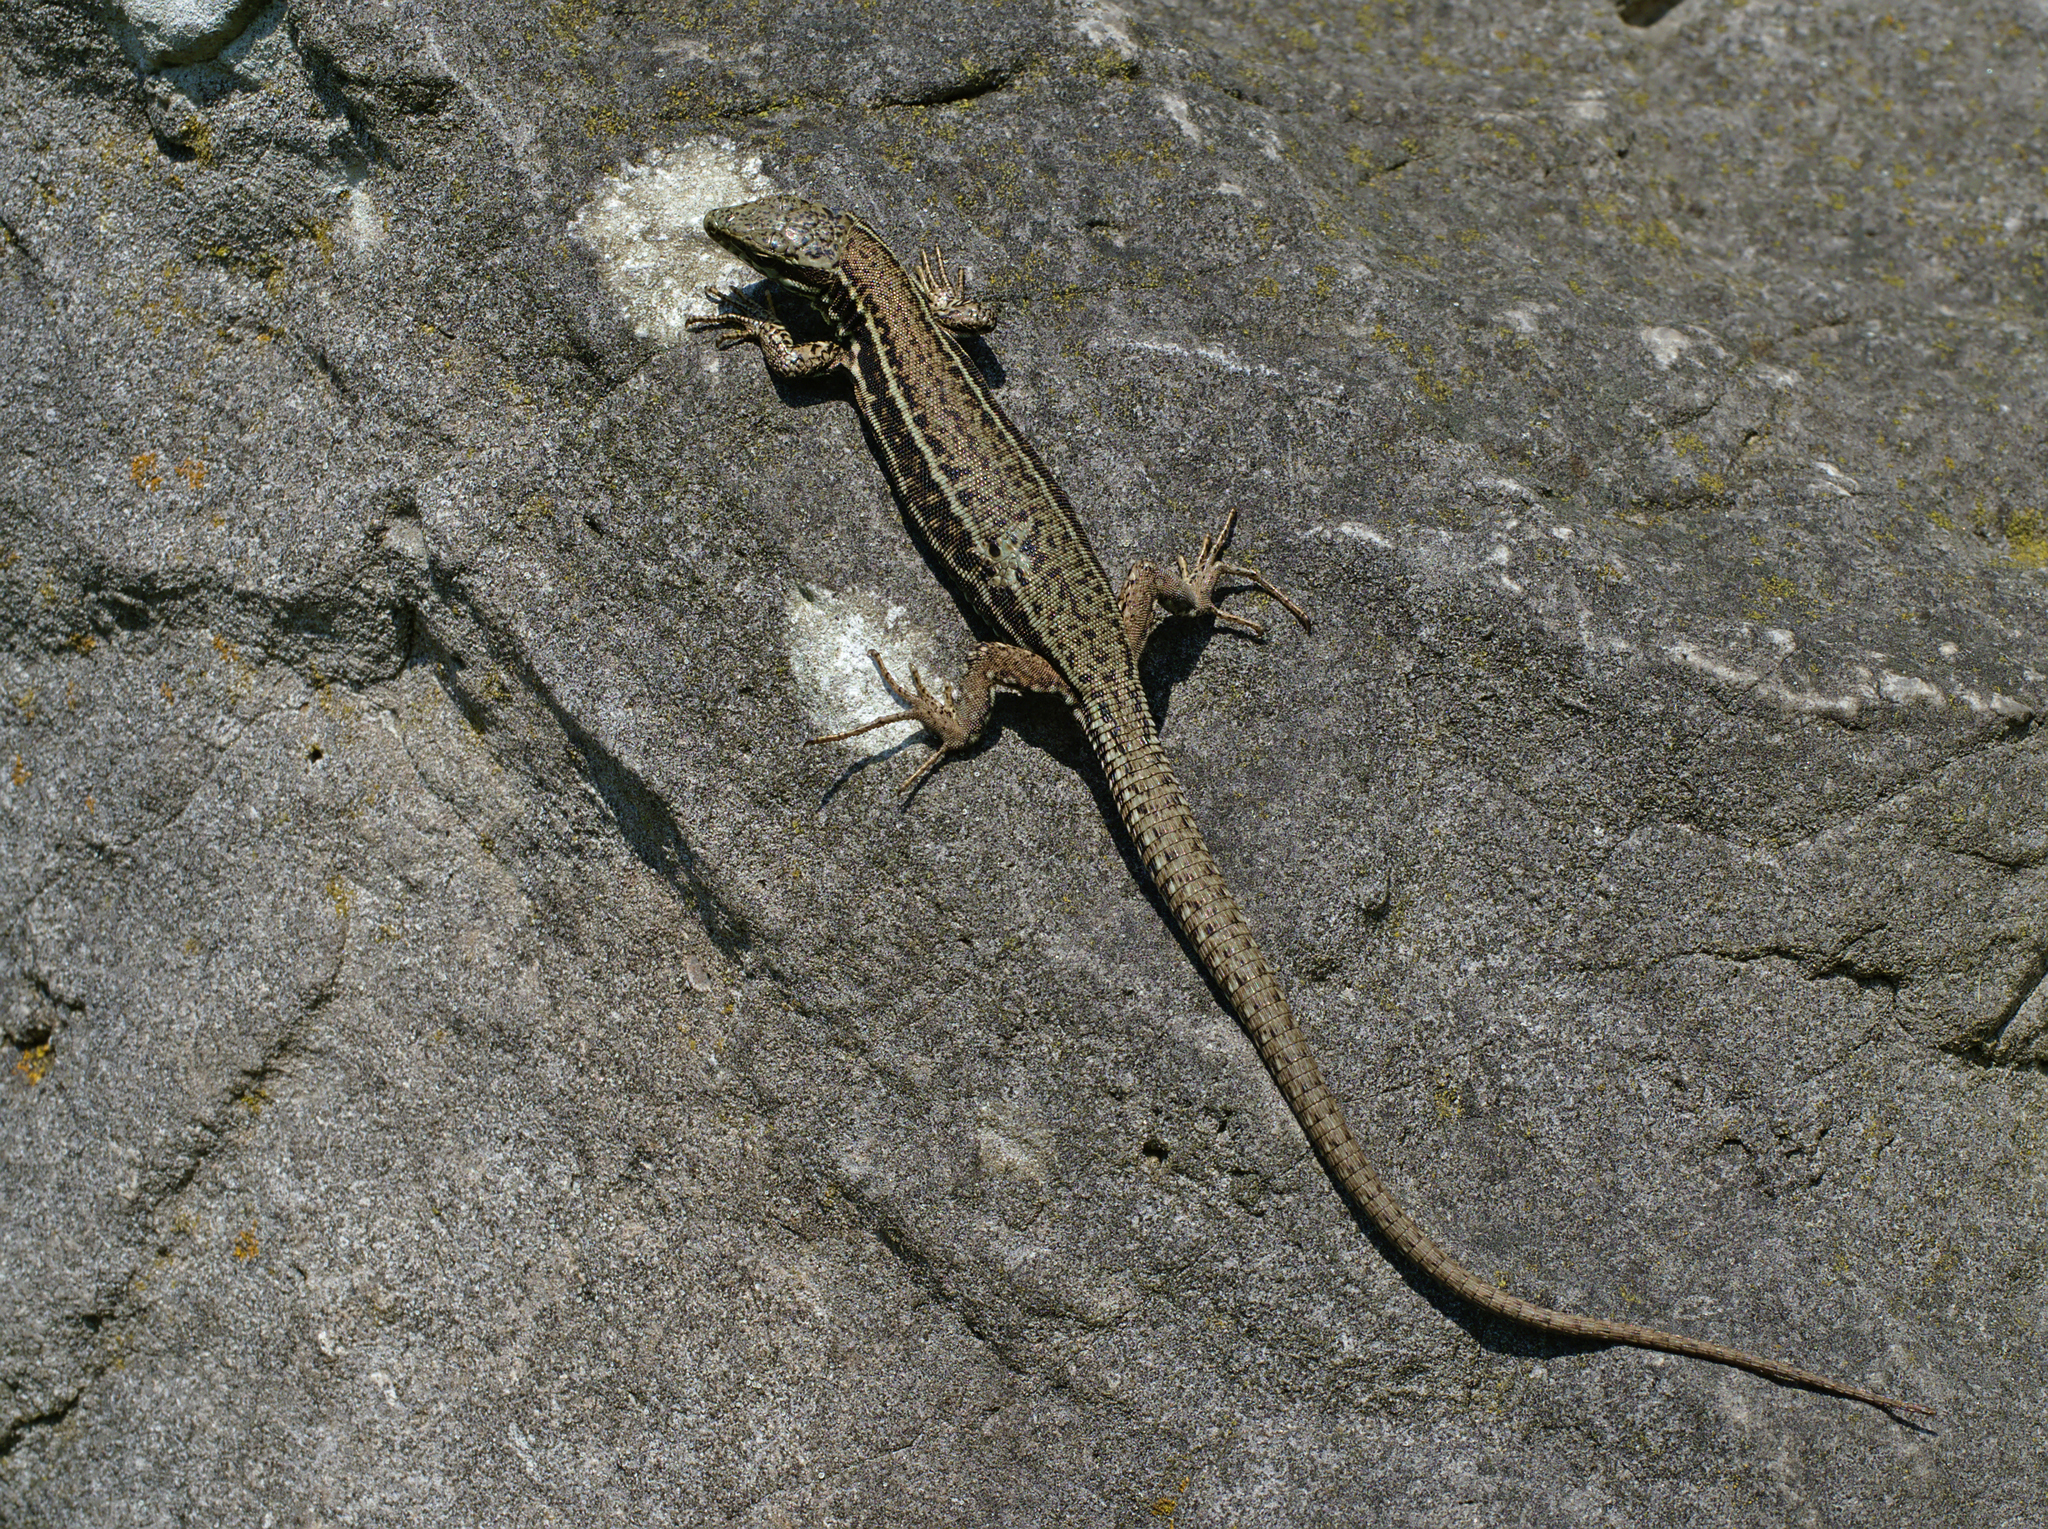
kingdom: Animalia
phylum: Chordata
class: Squamata
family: Lacertidae
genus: Podarcis
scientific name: Podarcis muralis
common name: Common wall lizard
